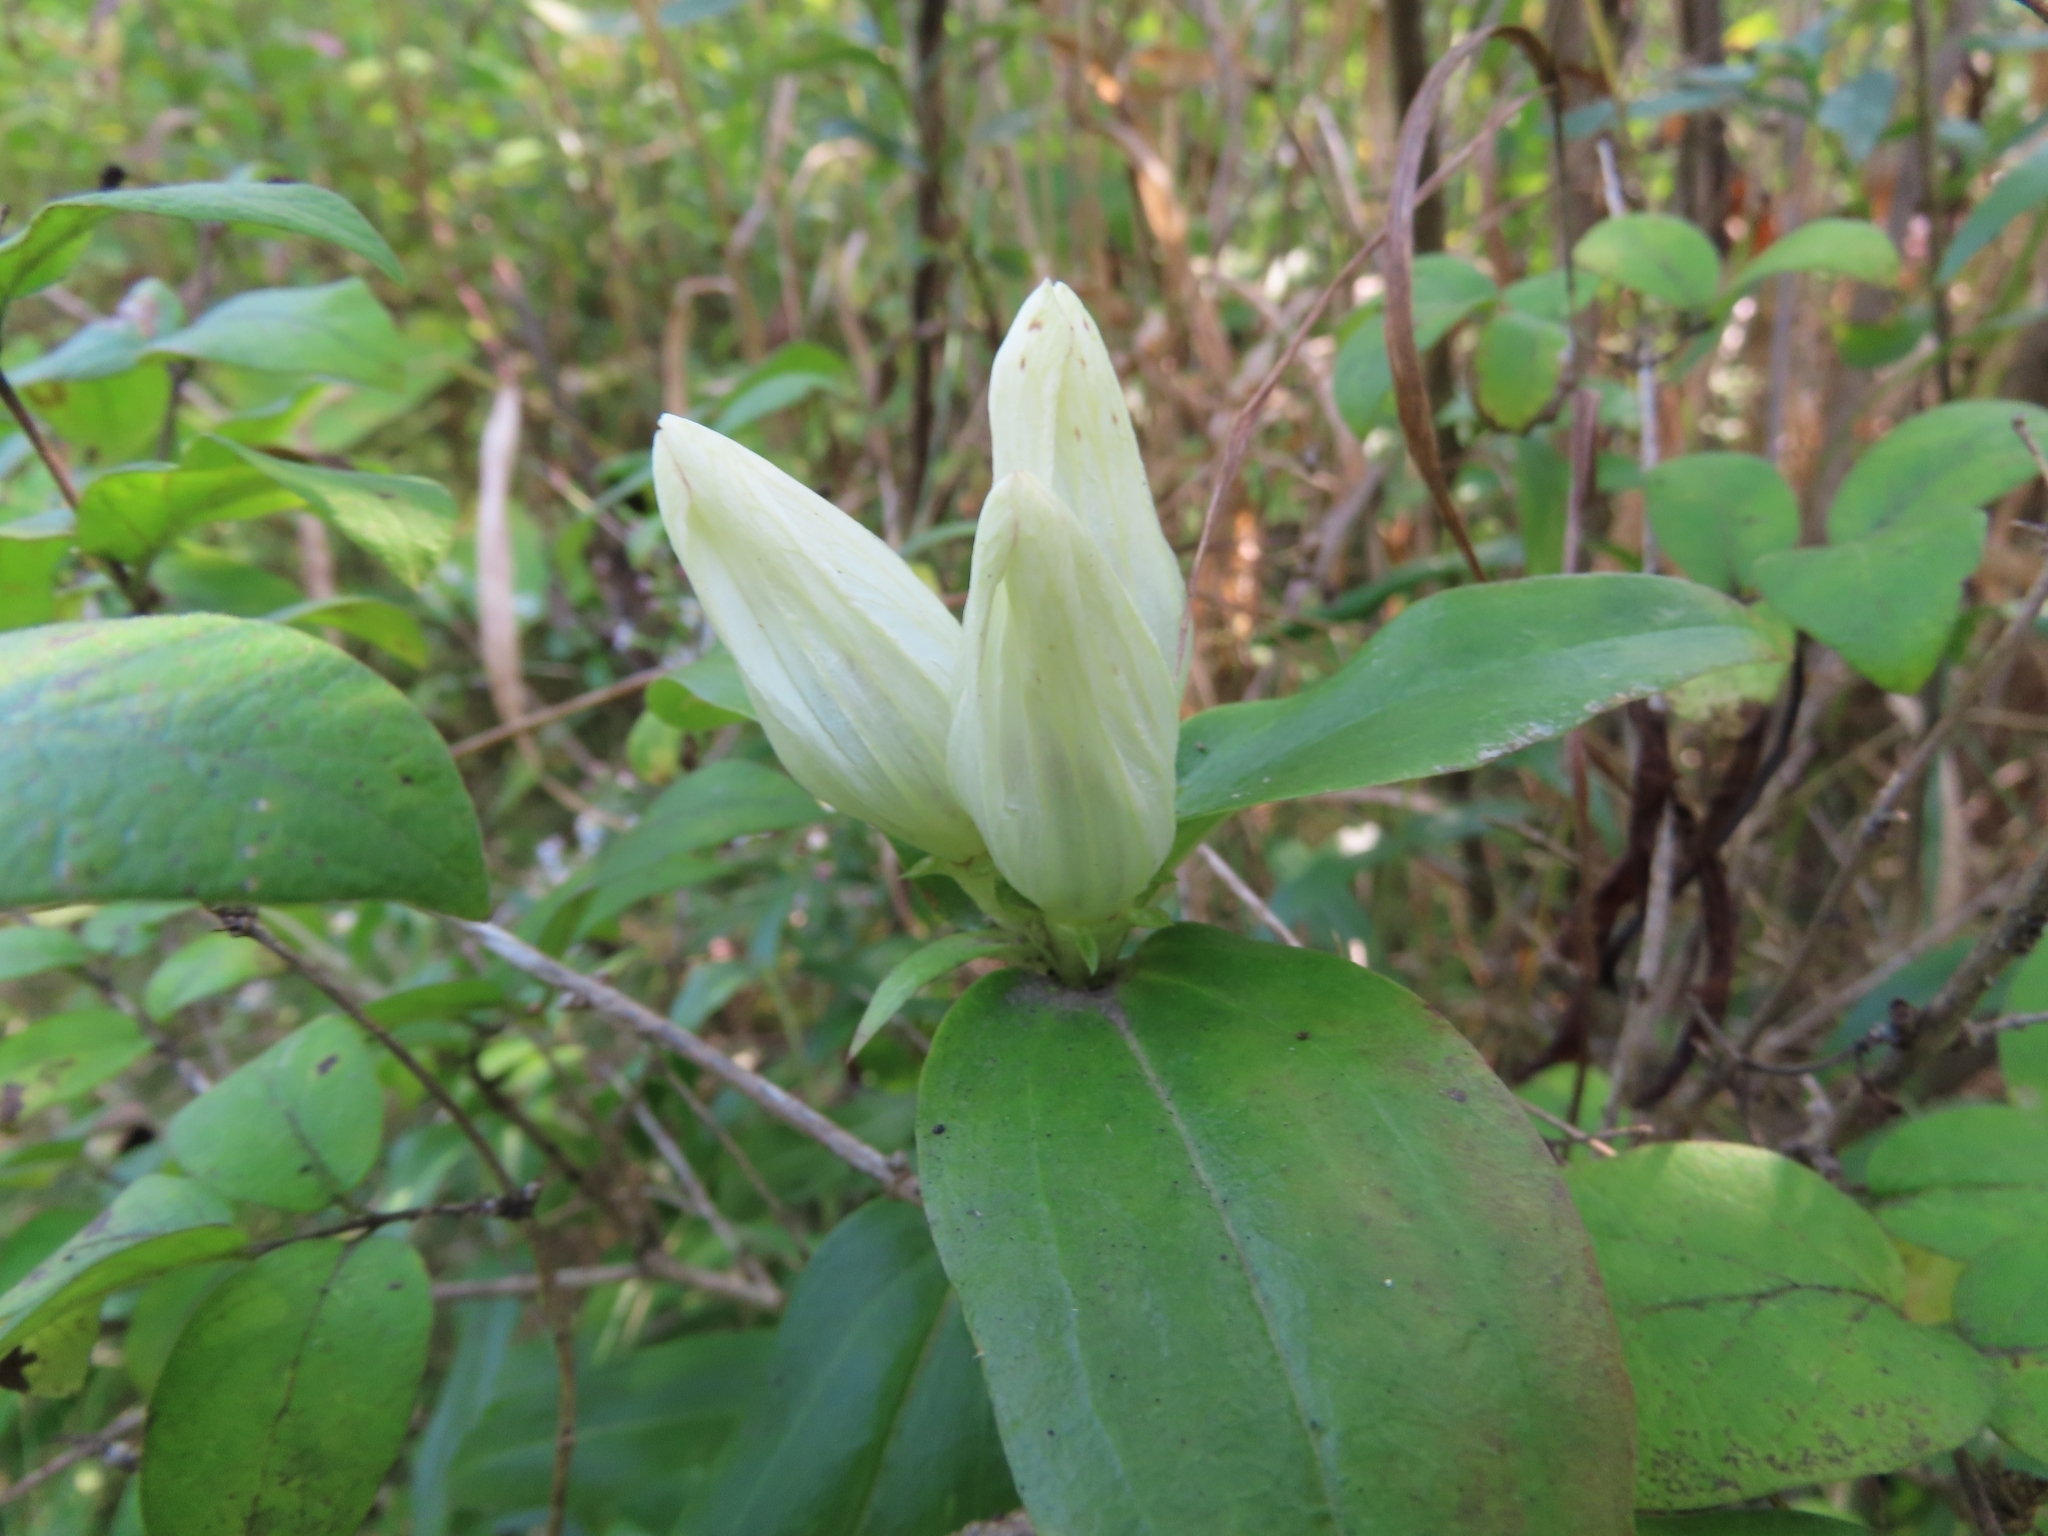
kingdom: Plantae
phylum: Tracheophyta
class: Magnoliopsida
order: Gentianales
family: Gentianaceae
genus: Gentiana
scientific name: Gentiana alba
